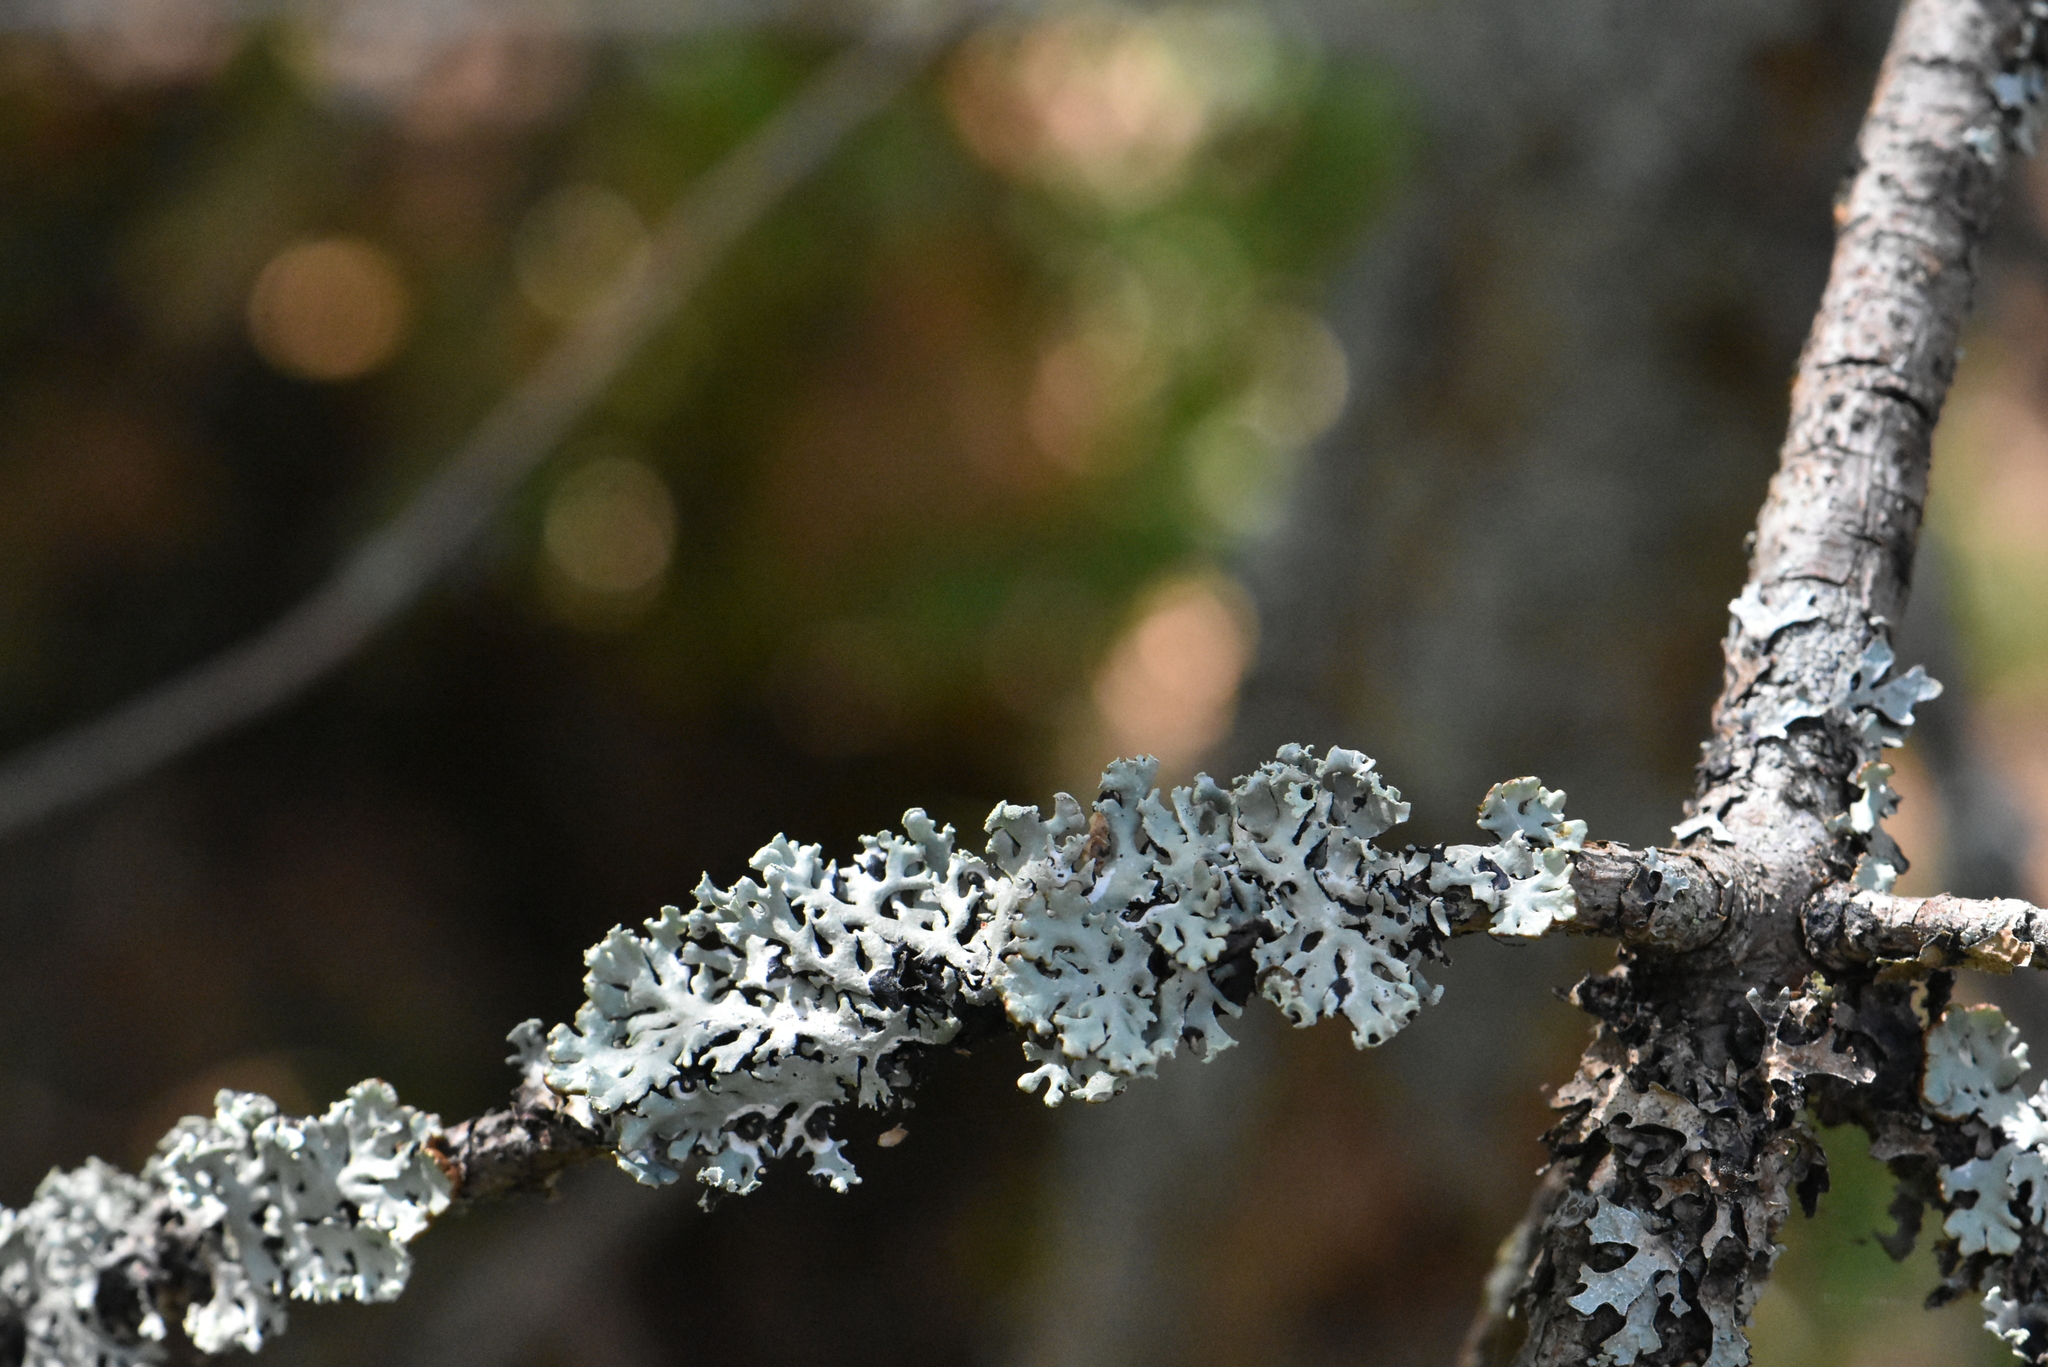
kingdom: Fungi
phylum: Ascomycota
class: Lecanoromycetes
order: Lecanorales
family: Parmeliaceae
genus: Hypogymnia
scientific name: Hypogymnia physodes
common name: Dark crottle
